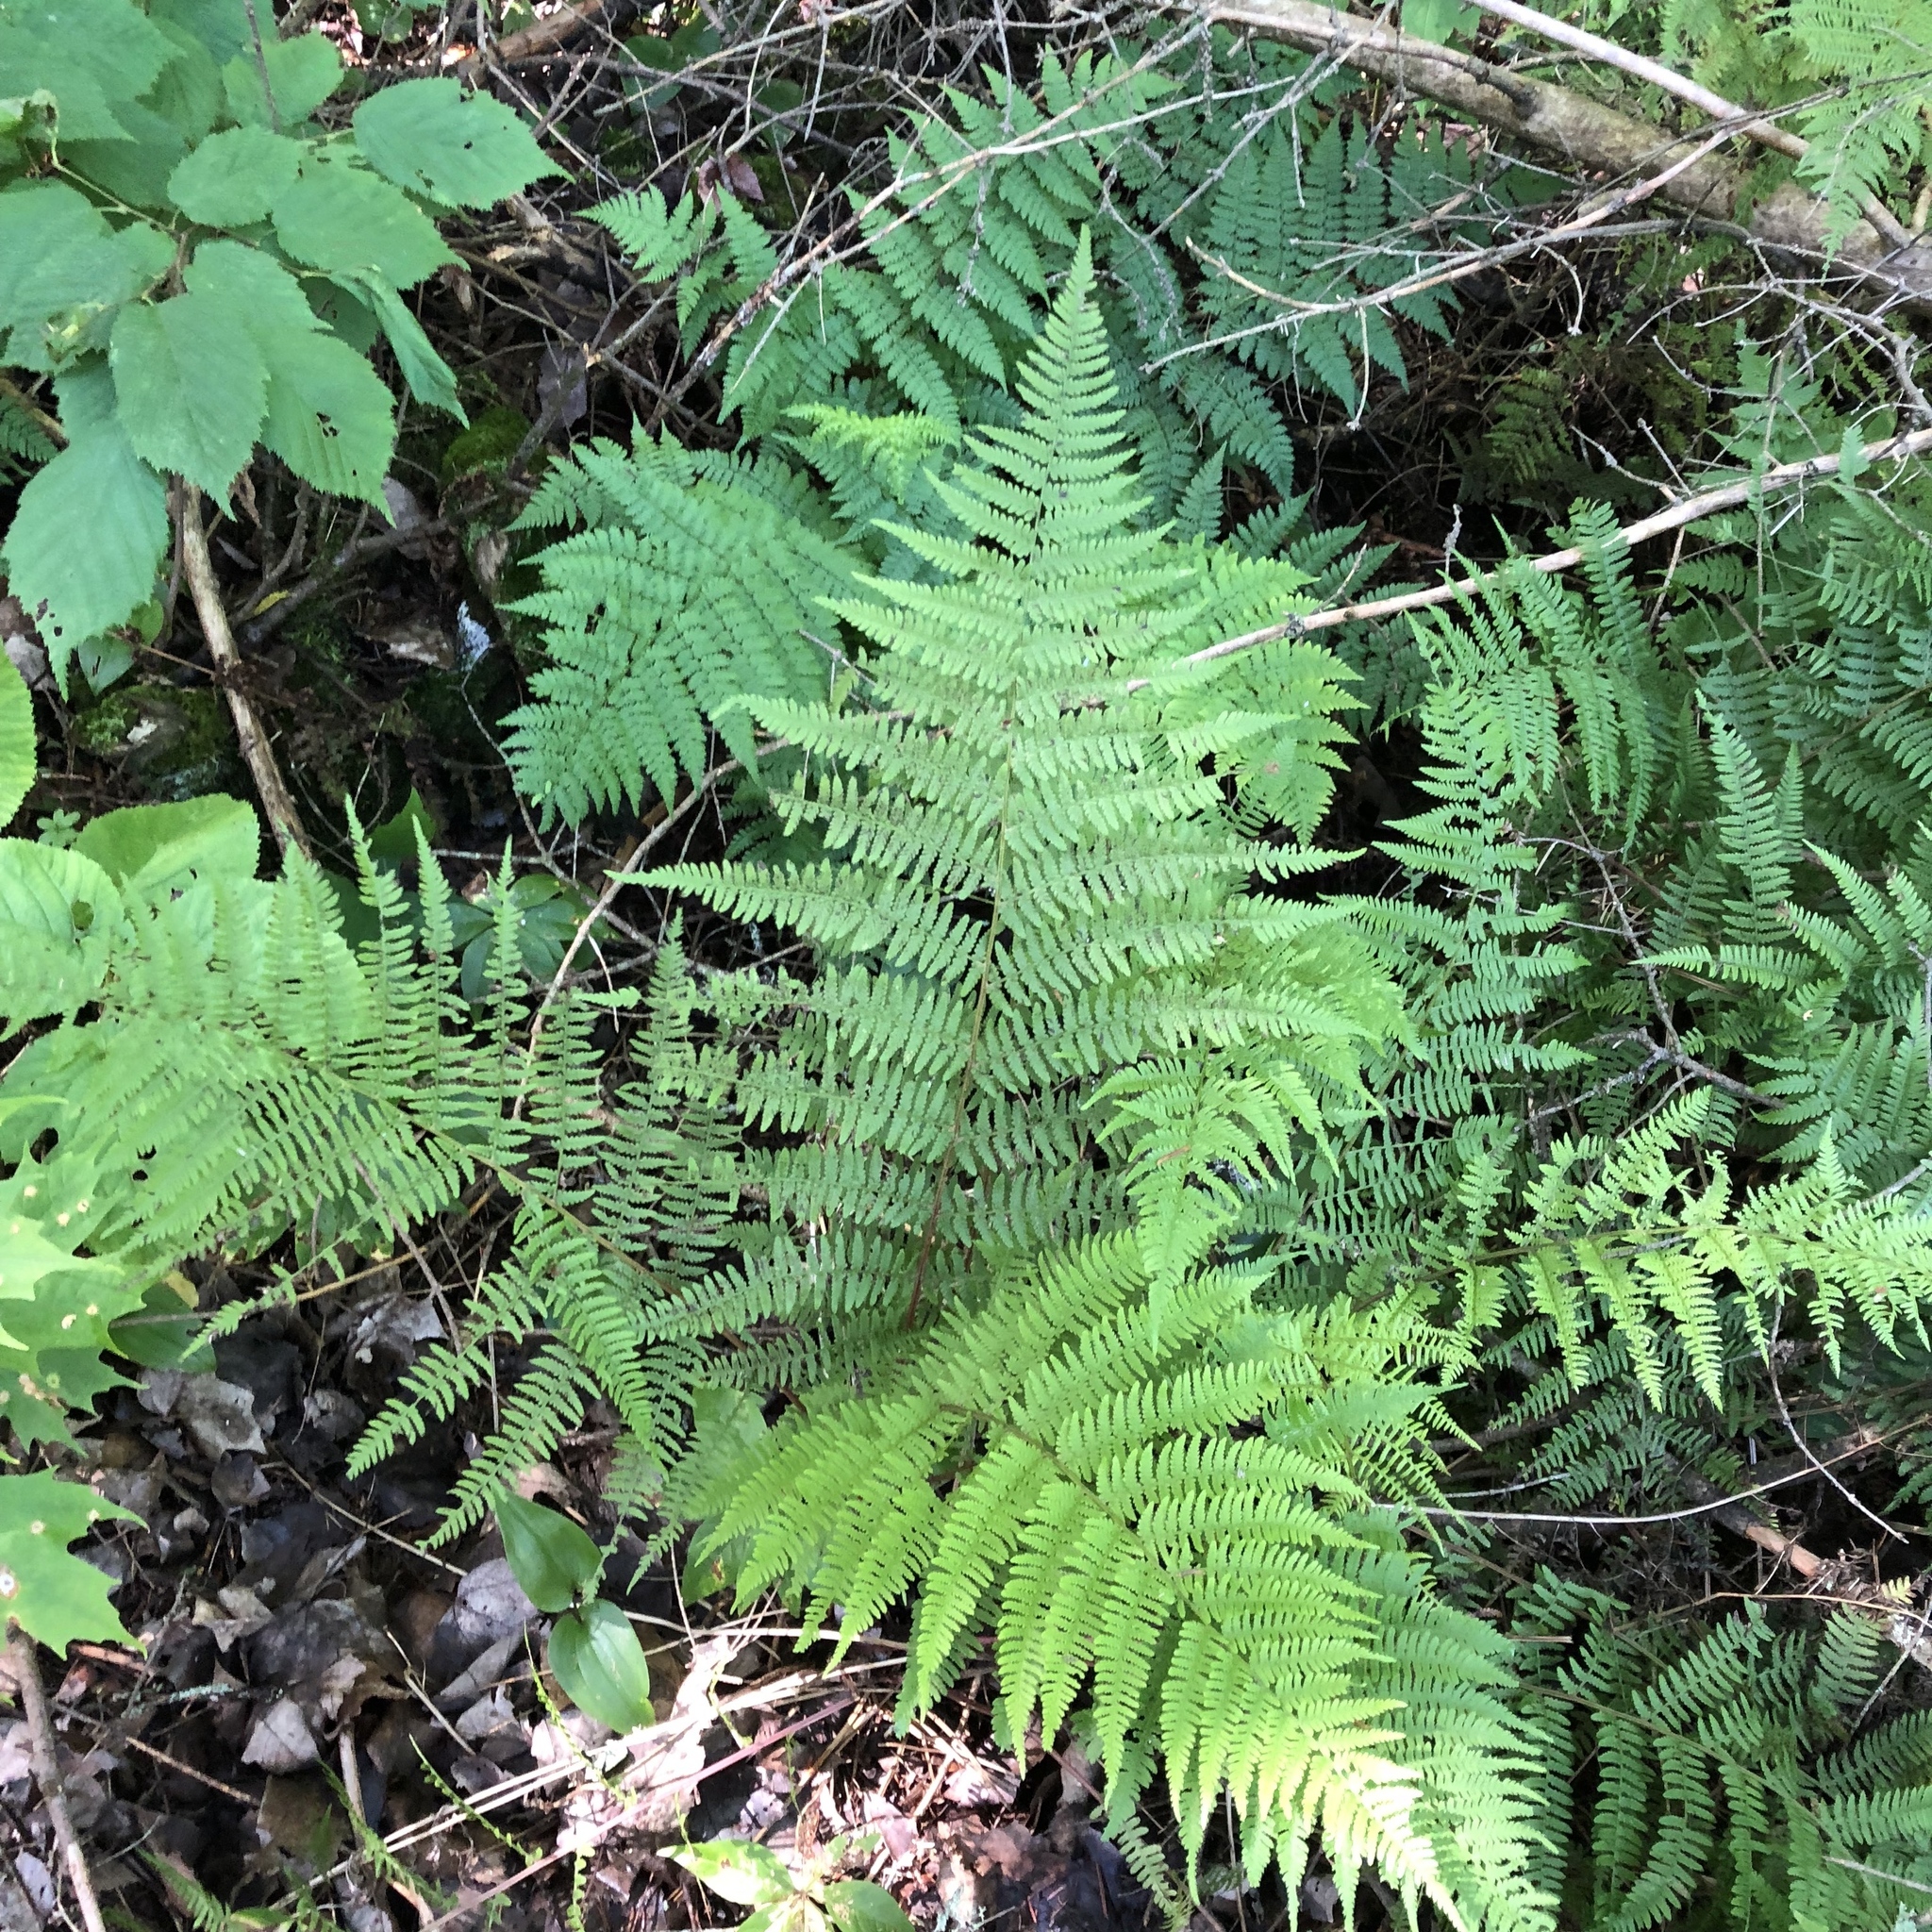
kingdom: Plantae
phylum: Tracheophyta
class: Polypodiopsida
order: Polypodiales
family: Athyriaceae
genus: Athyrium
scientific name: Athyrium angustum
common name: Northern lady fern
